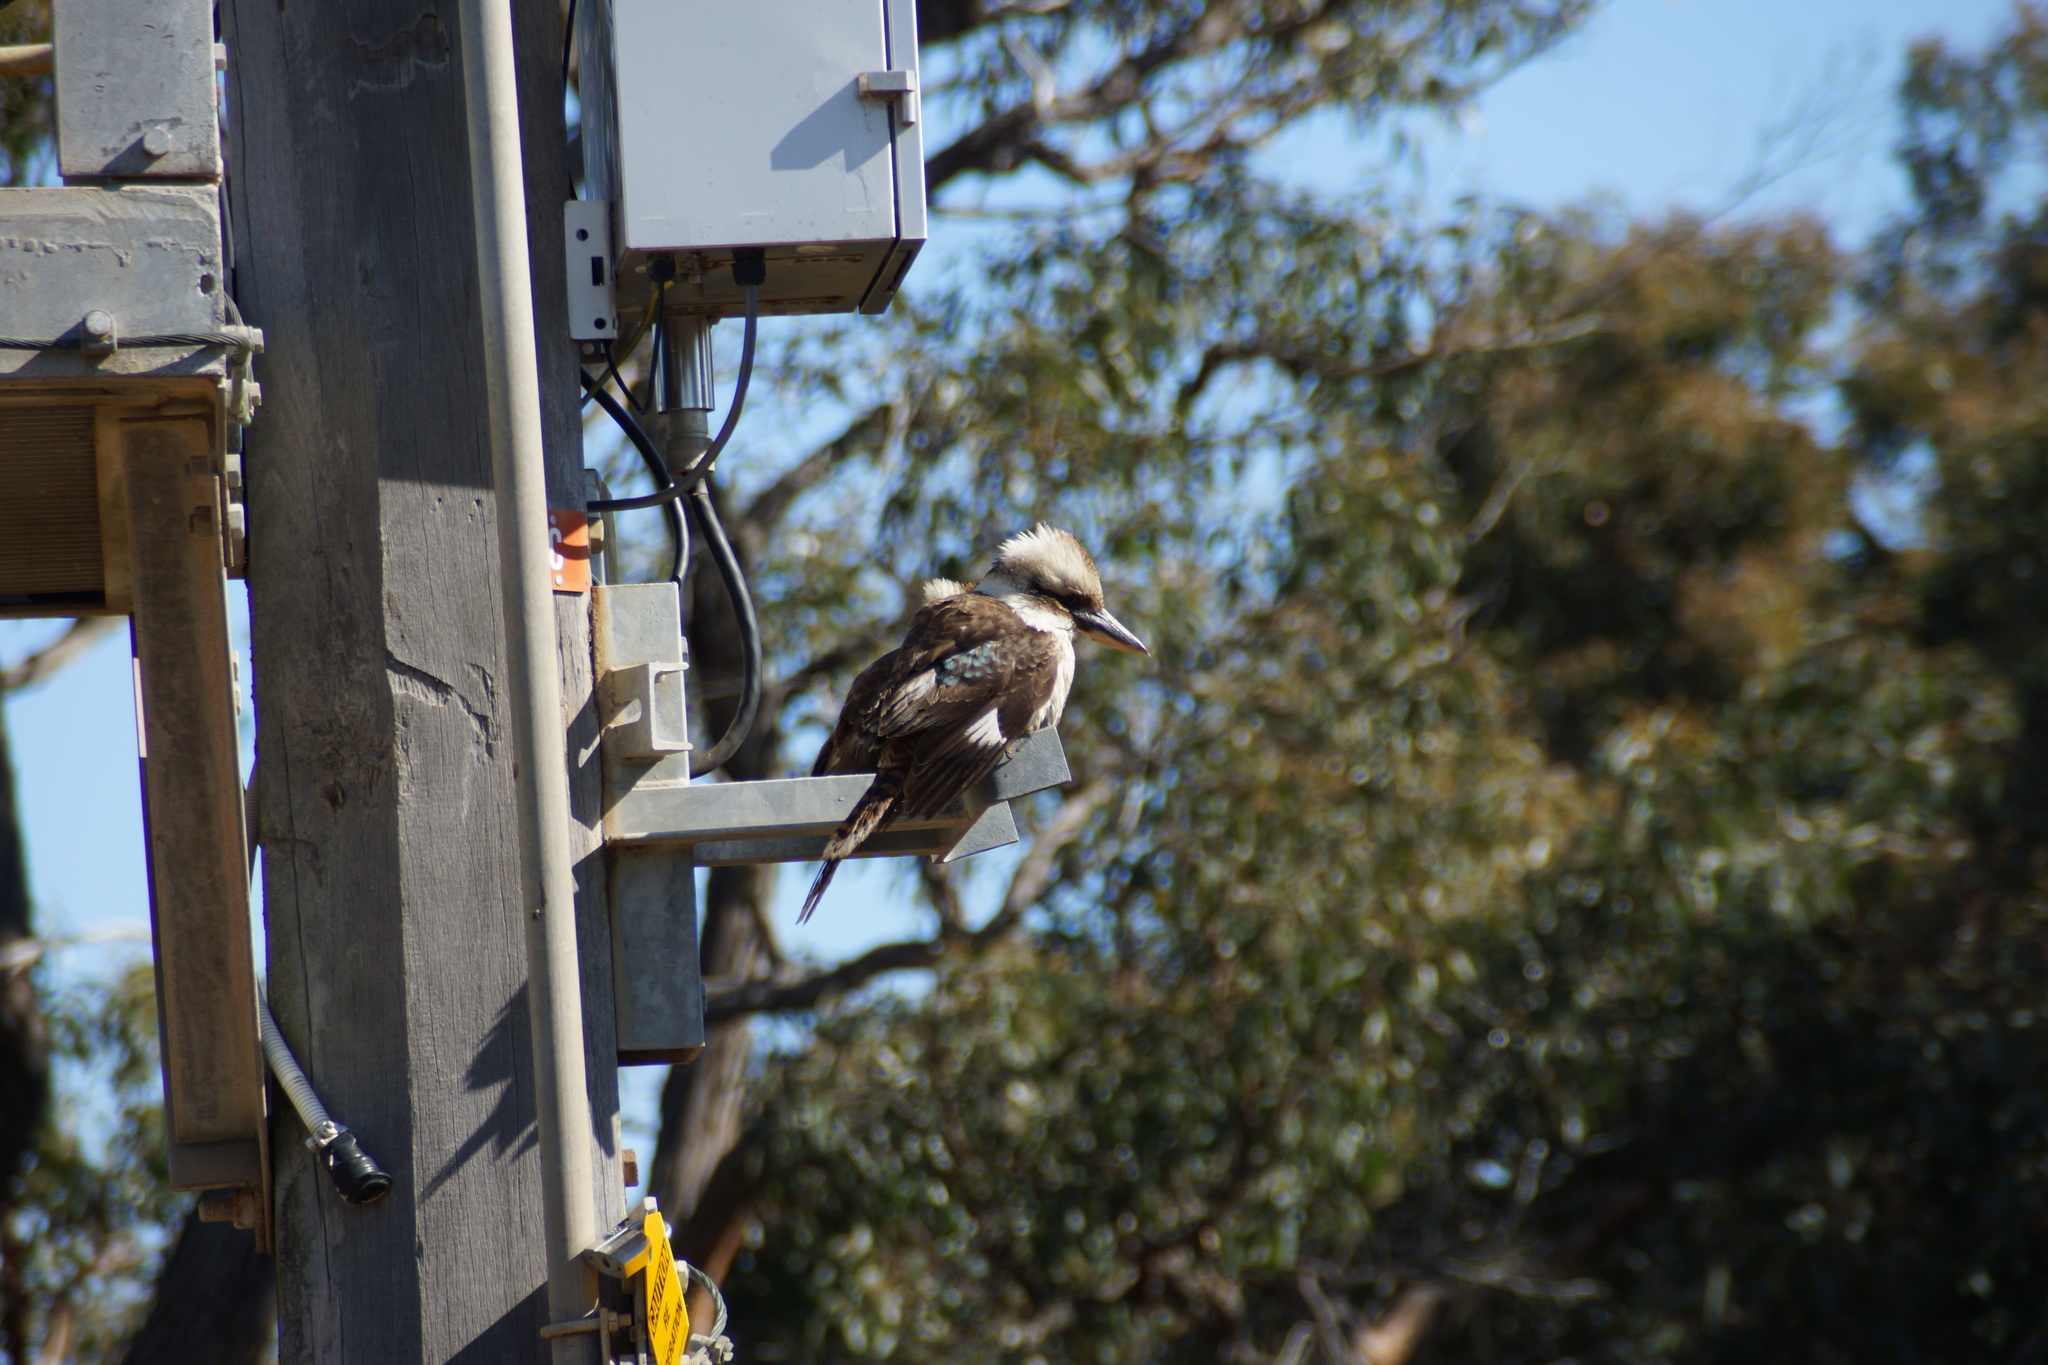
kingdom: Animalia
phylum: Chordata
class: Aves
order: Coraciiformes
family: Alcedinidae
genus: Dacelo
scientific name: Dacelo novaeguineae
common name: Laughing kookaburra
